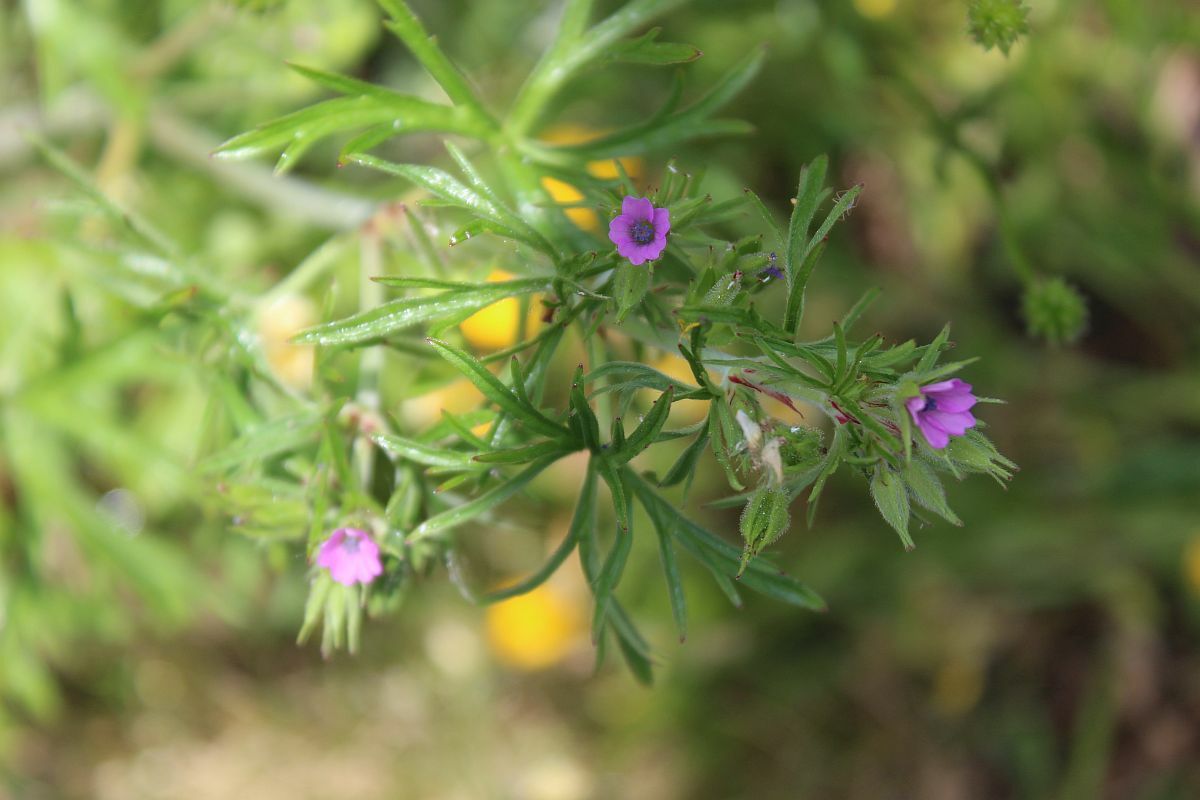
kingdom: Plantae
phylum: Tracheophyta
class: Magnoliopsida
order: Geraniales
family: Geraniaceae
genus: Geranium
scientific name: Geranium dissectum
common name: Cut-leaved crane's-bill
